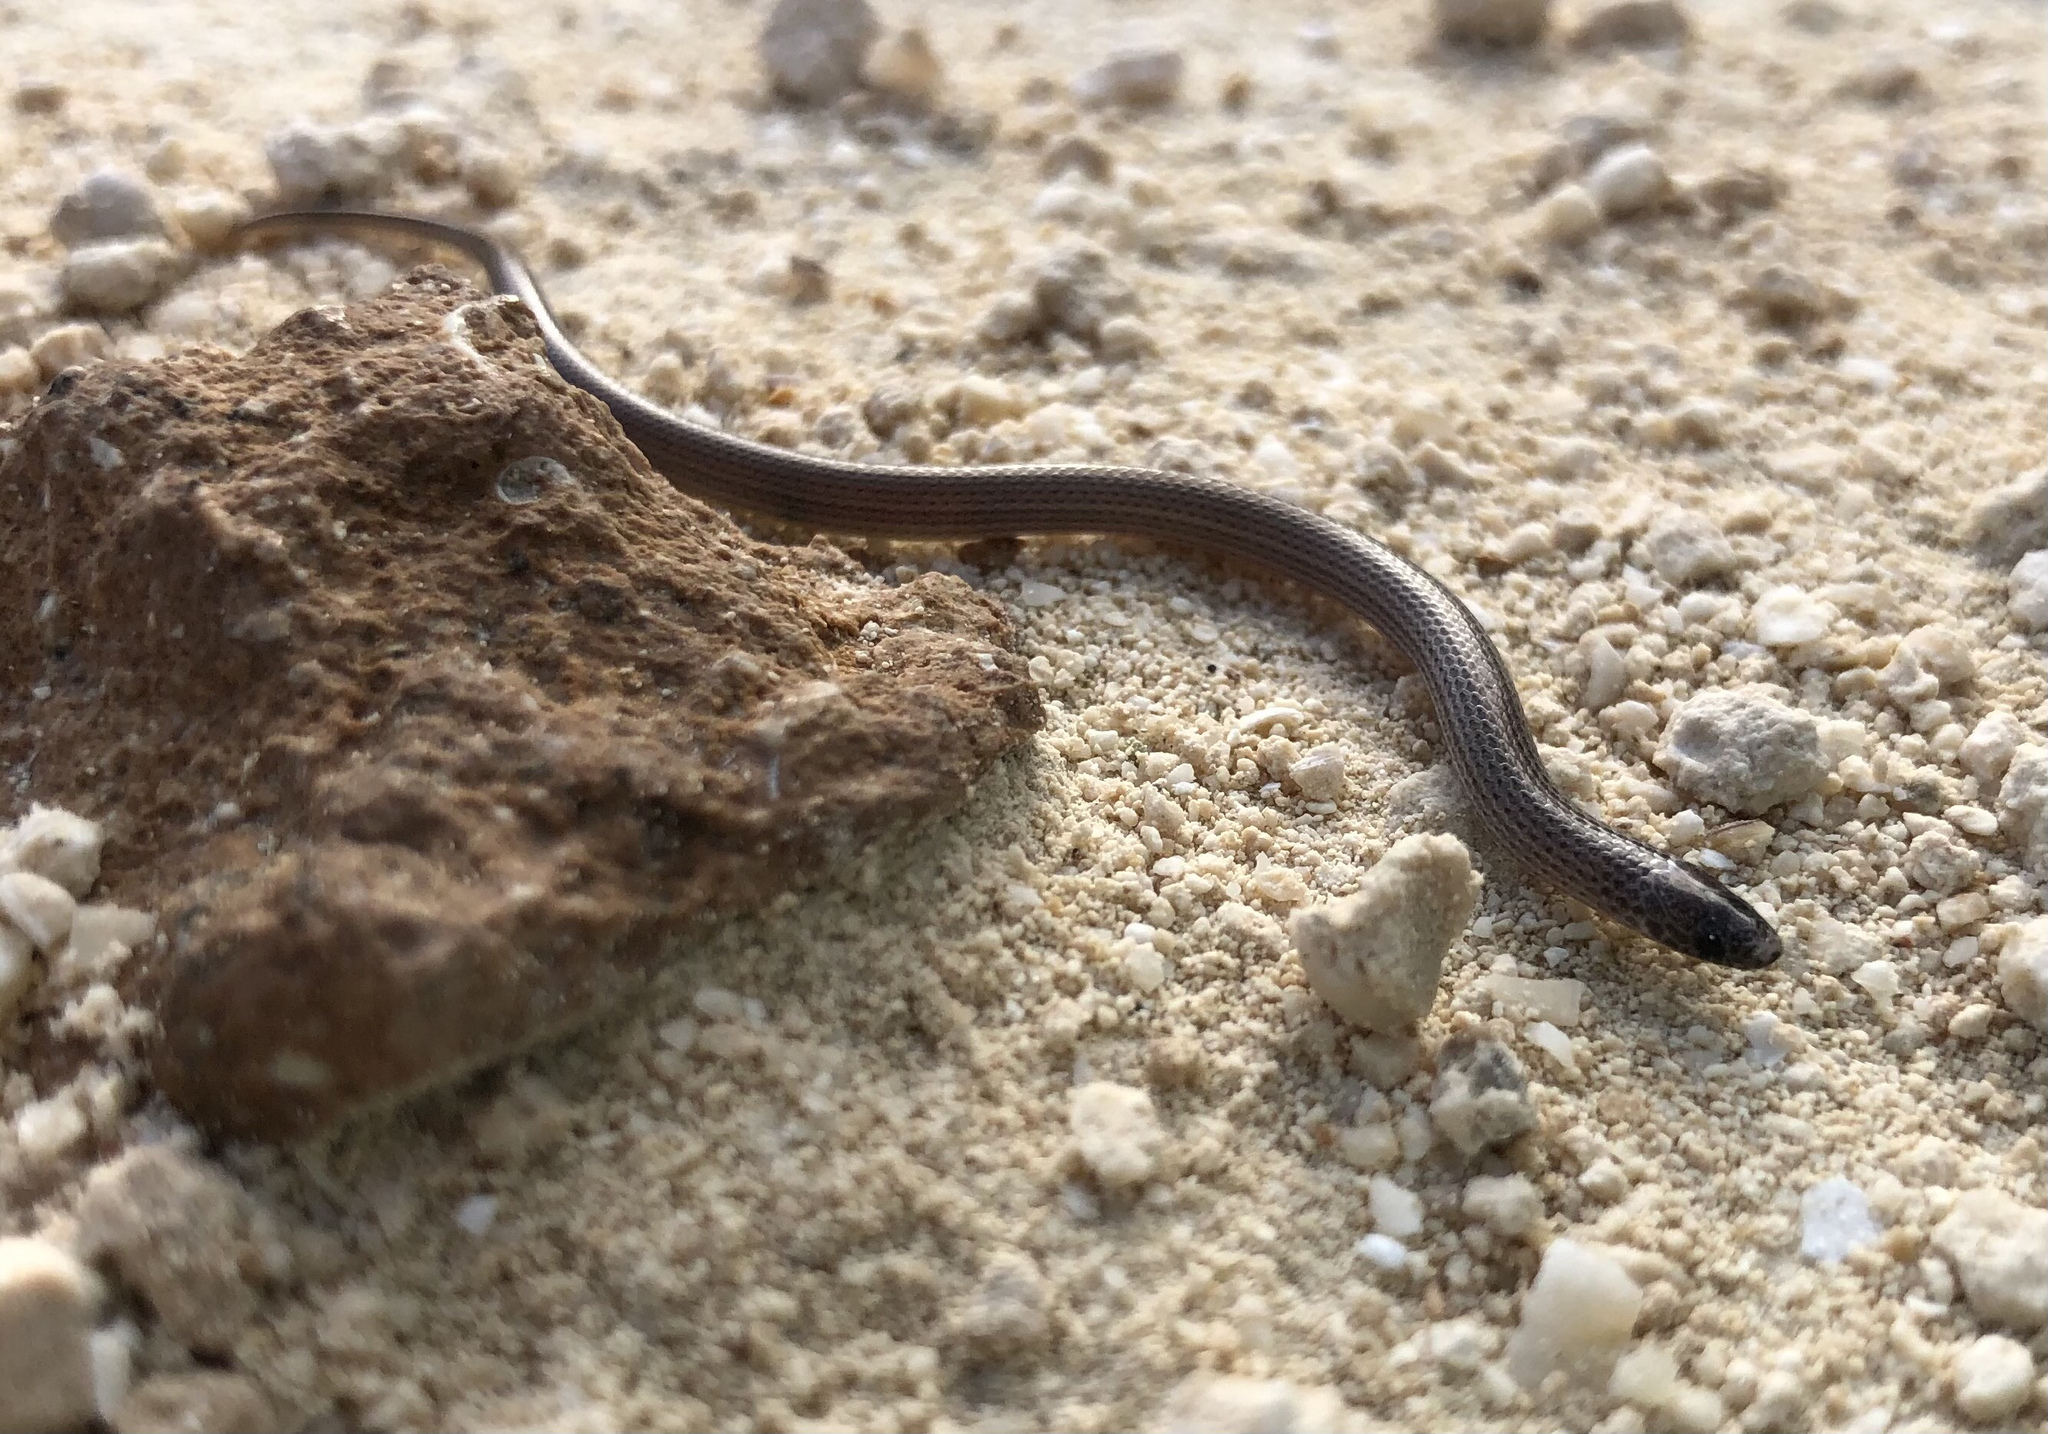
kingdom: Animalia
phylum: Chordata
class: Squamata
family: Colubridae
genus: Tantillita
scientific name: Tantillita canula
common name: Yucatecan dwarf short-tail snake
